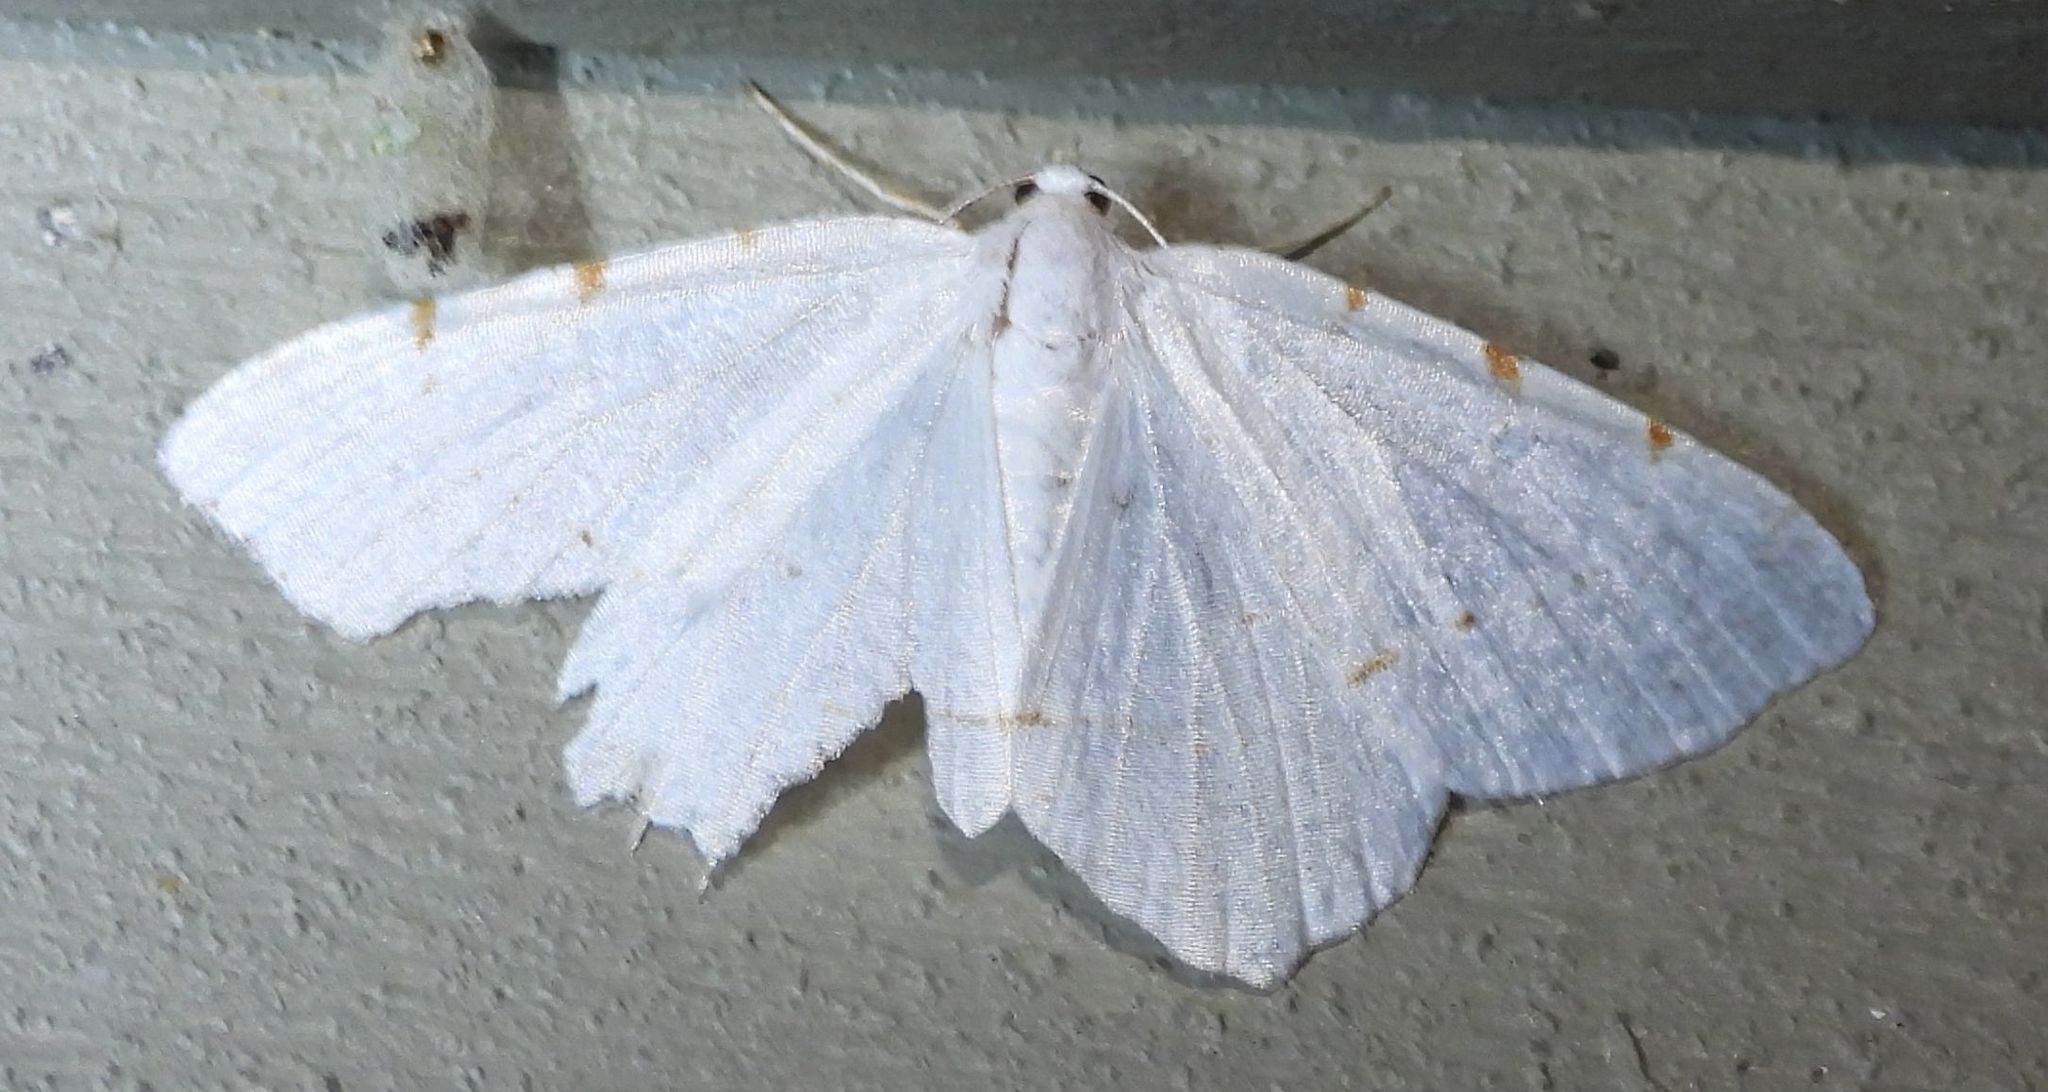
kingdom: Animalia
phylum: Arthropoda
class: Insecta
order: Lepidoptera
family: Geometridae
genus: Macaria
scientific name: Macaria pustularia
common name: Lesser maple spanworm moth
